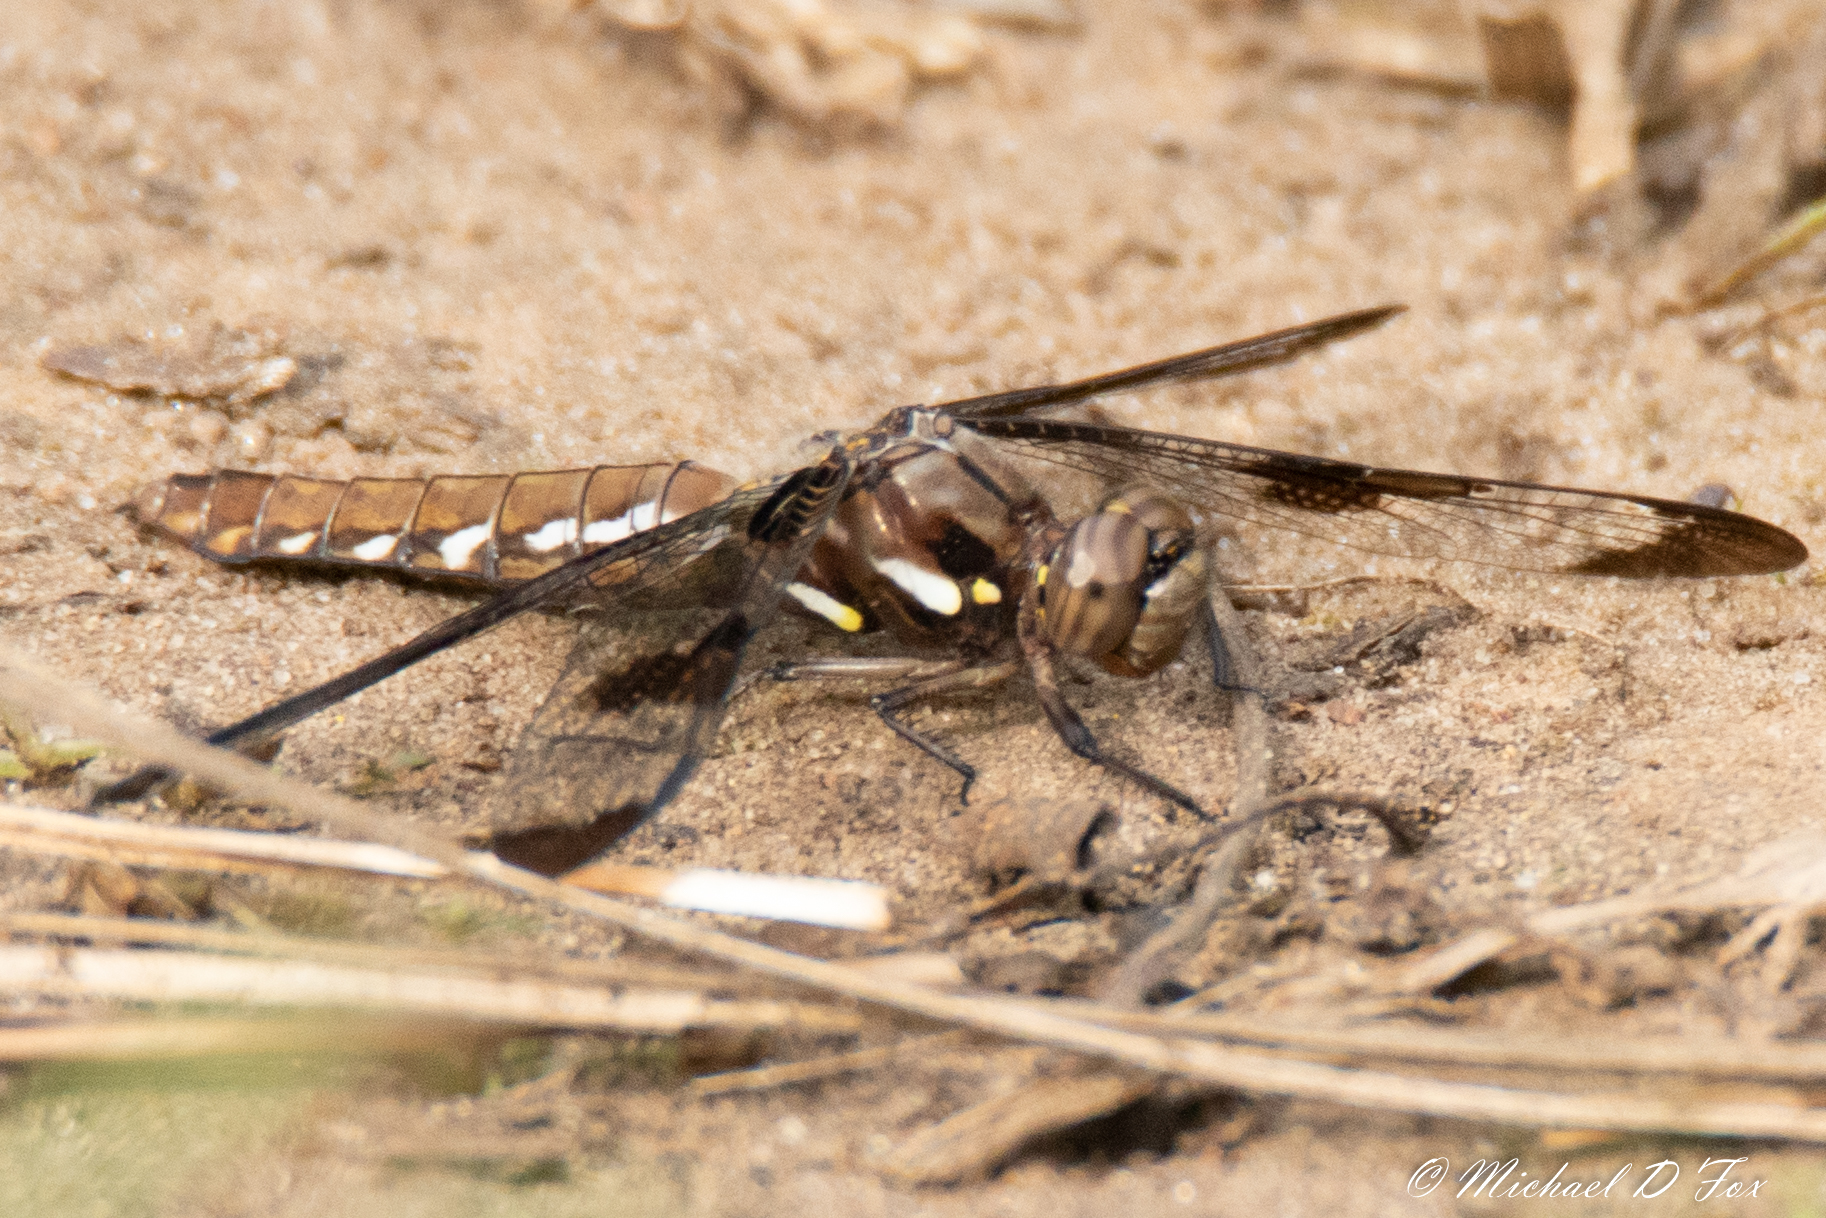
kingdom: Animalia
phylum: Arthropoda
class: Insecta
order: Odonata
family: Libellulidae
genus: Plathemis
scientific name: Plathemis lydia
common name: Common whitetail
